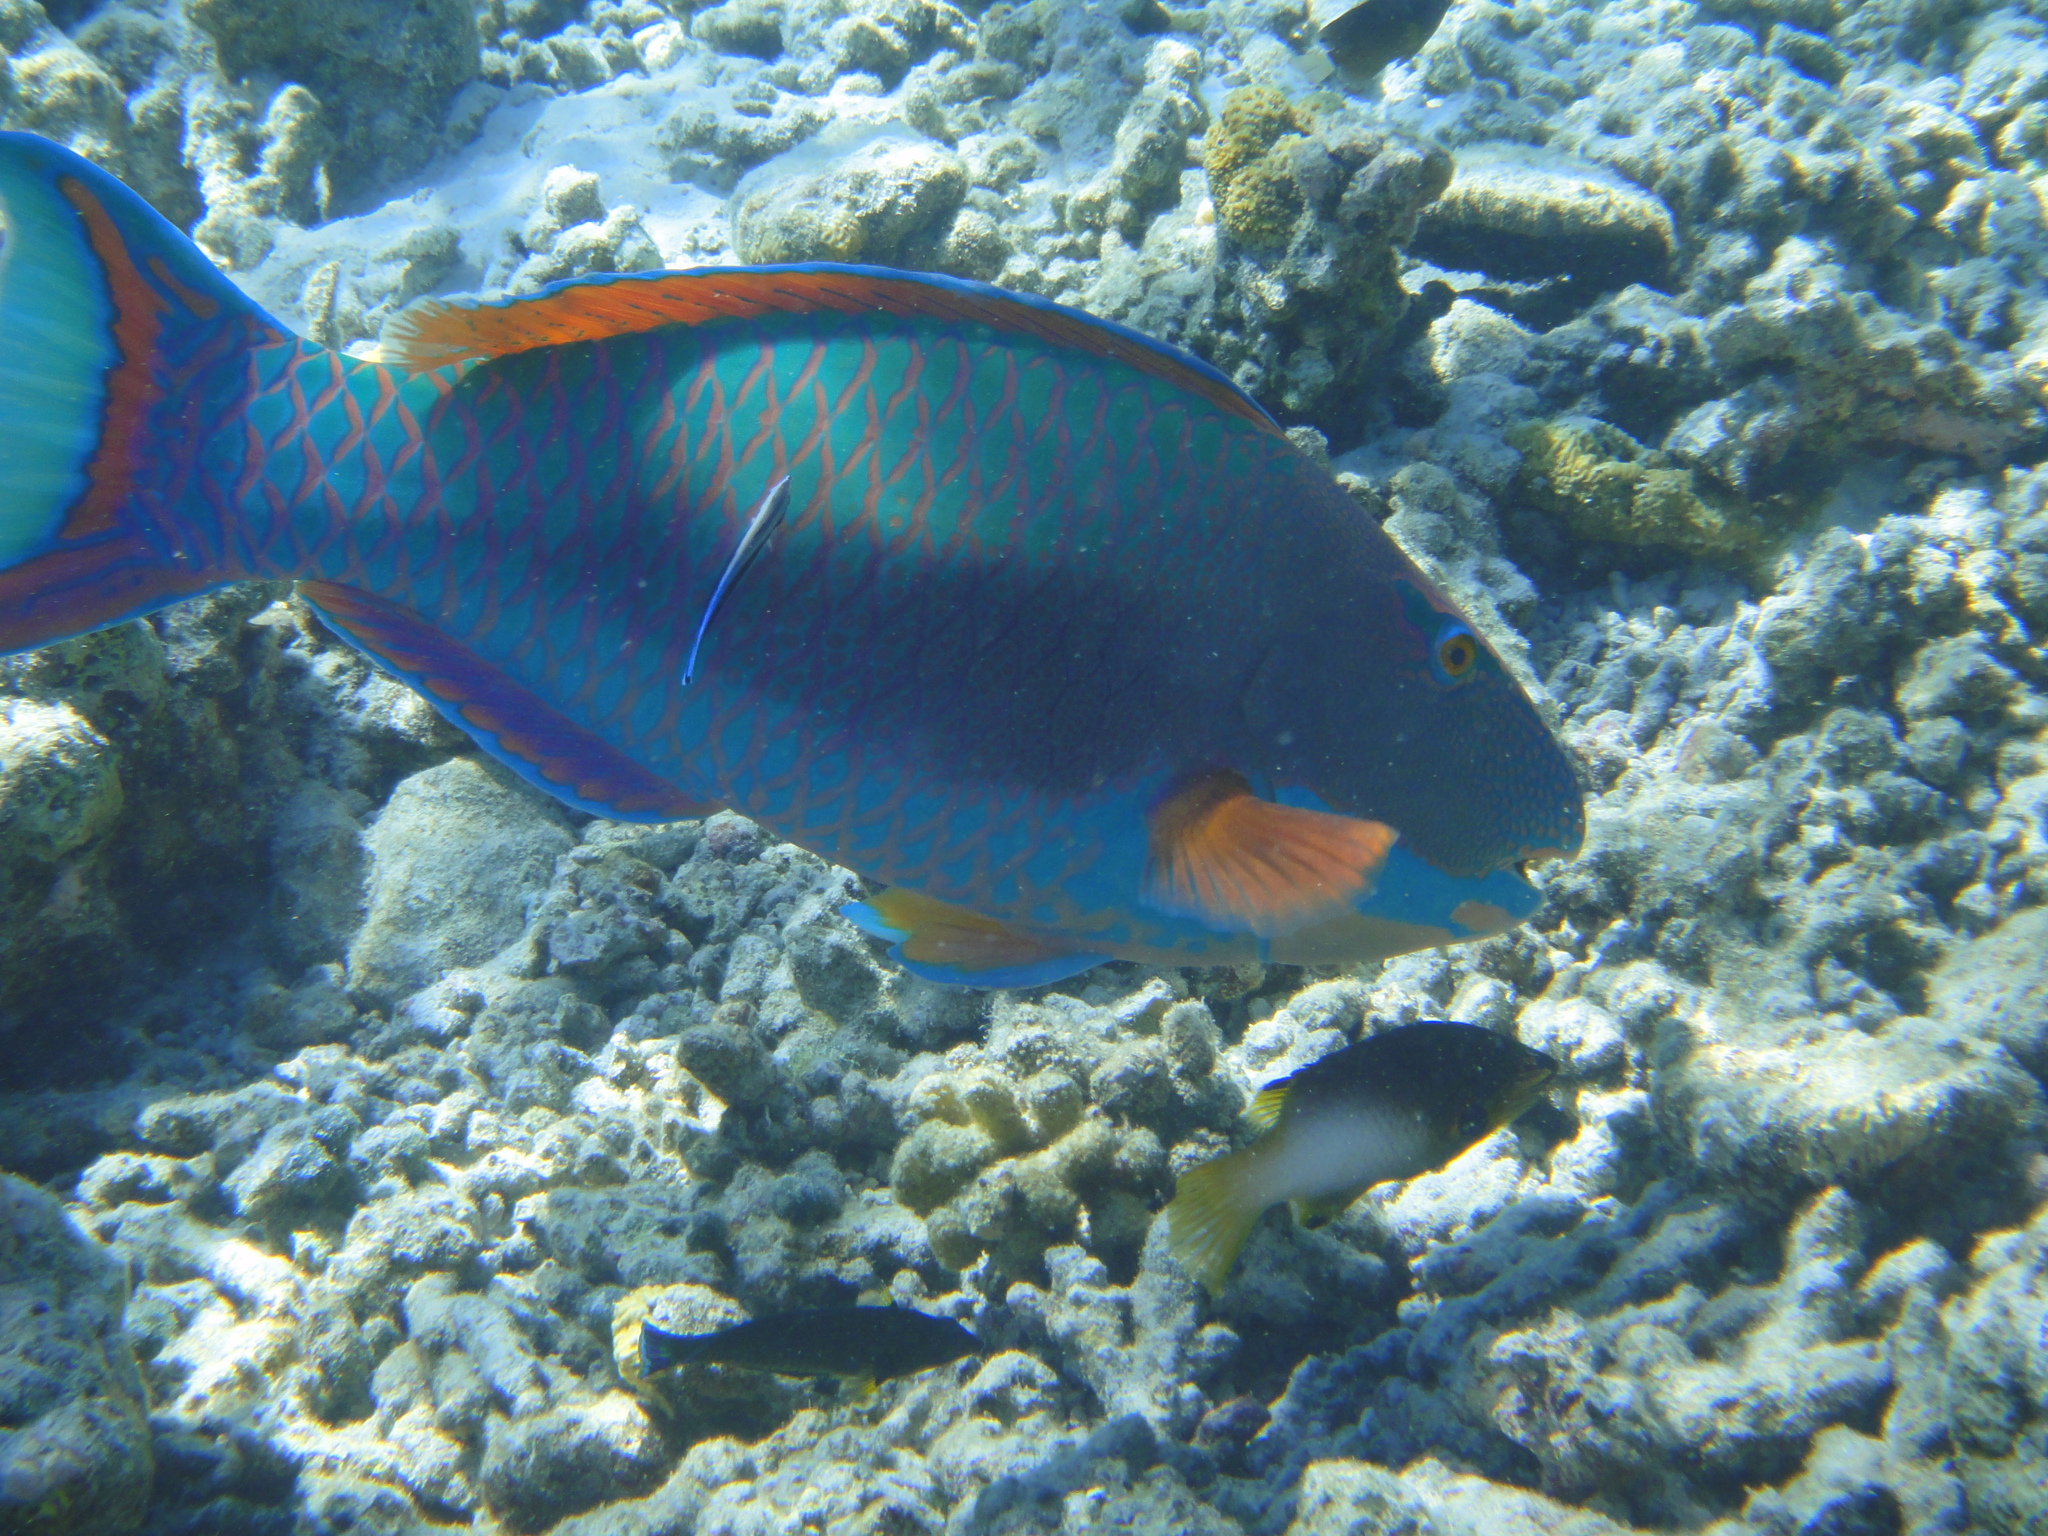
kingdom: Animalia
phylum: Chordata
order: Perciformes
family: Scaridae
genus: Cetoscarus
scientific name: Cetoscarus ocellatus
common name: Bicolor parrotfish
